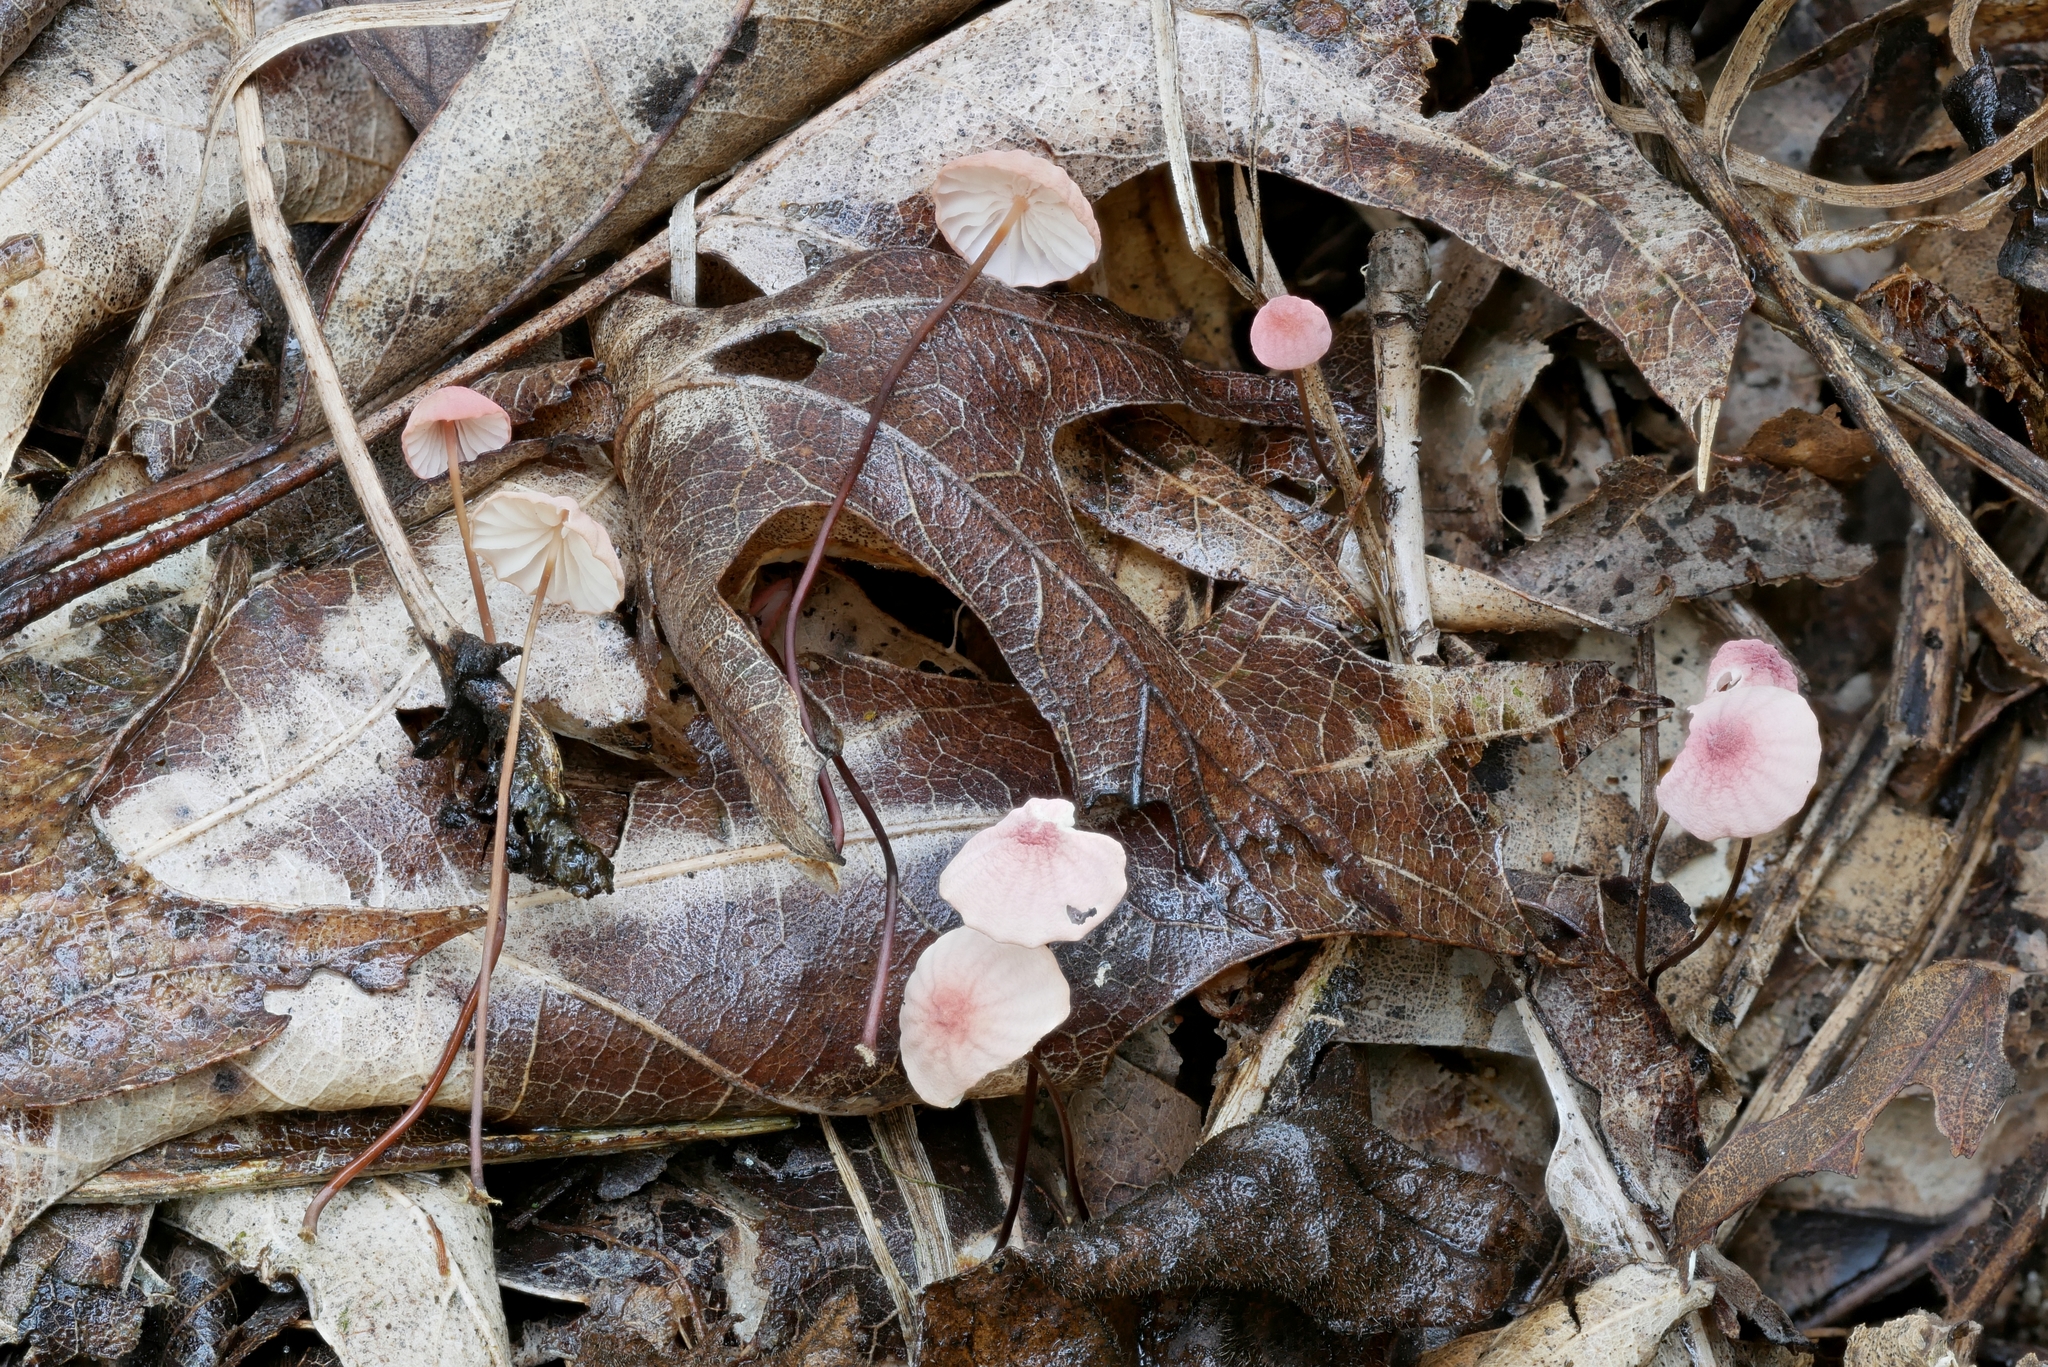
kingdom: Fungi
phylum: Basidiomycota
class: Agaricomycetes
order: Agaricales
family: Marasmiaceae
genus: Marasmius
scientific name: Marasmius pulcherripes
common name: Rosy parachute
